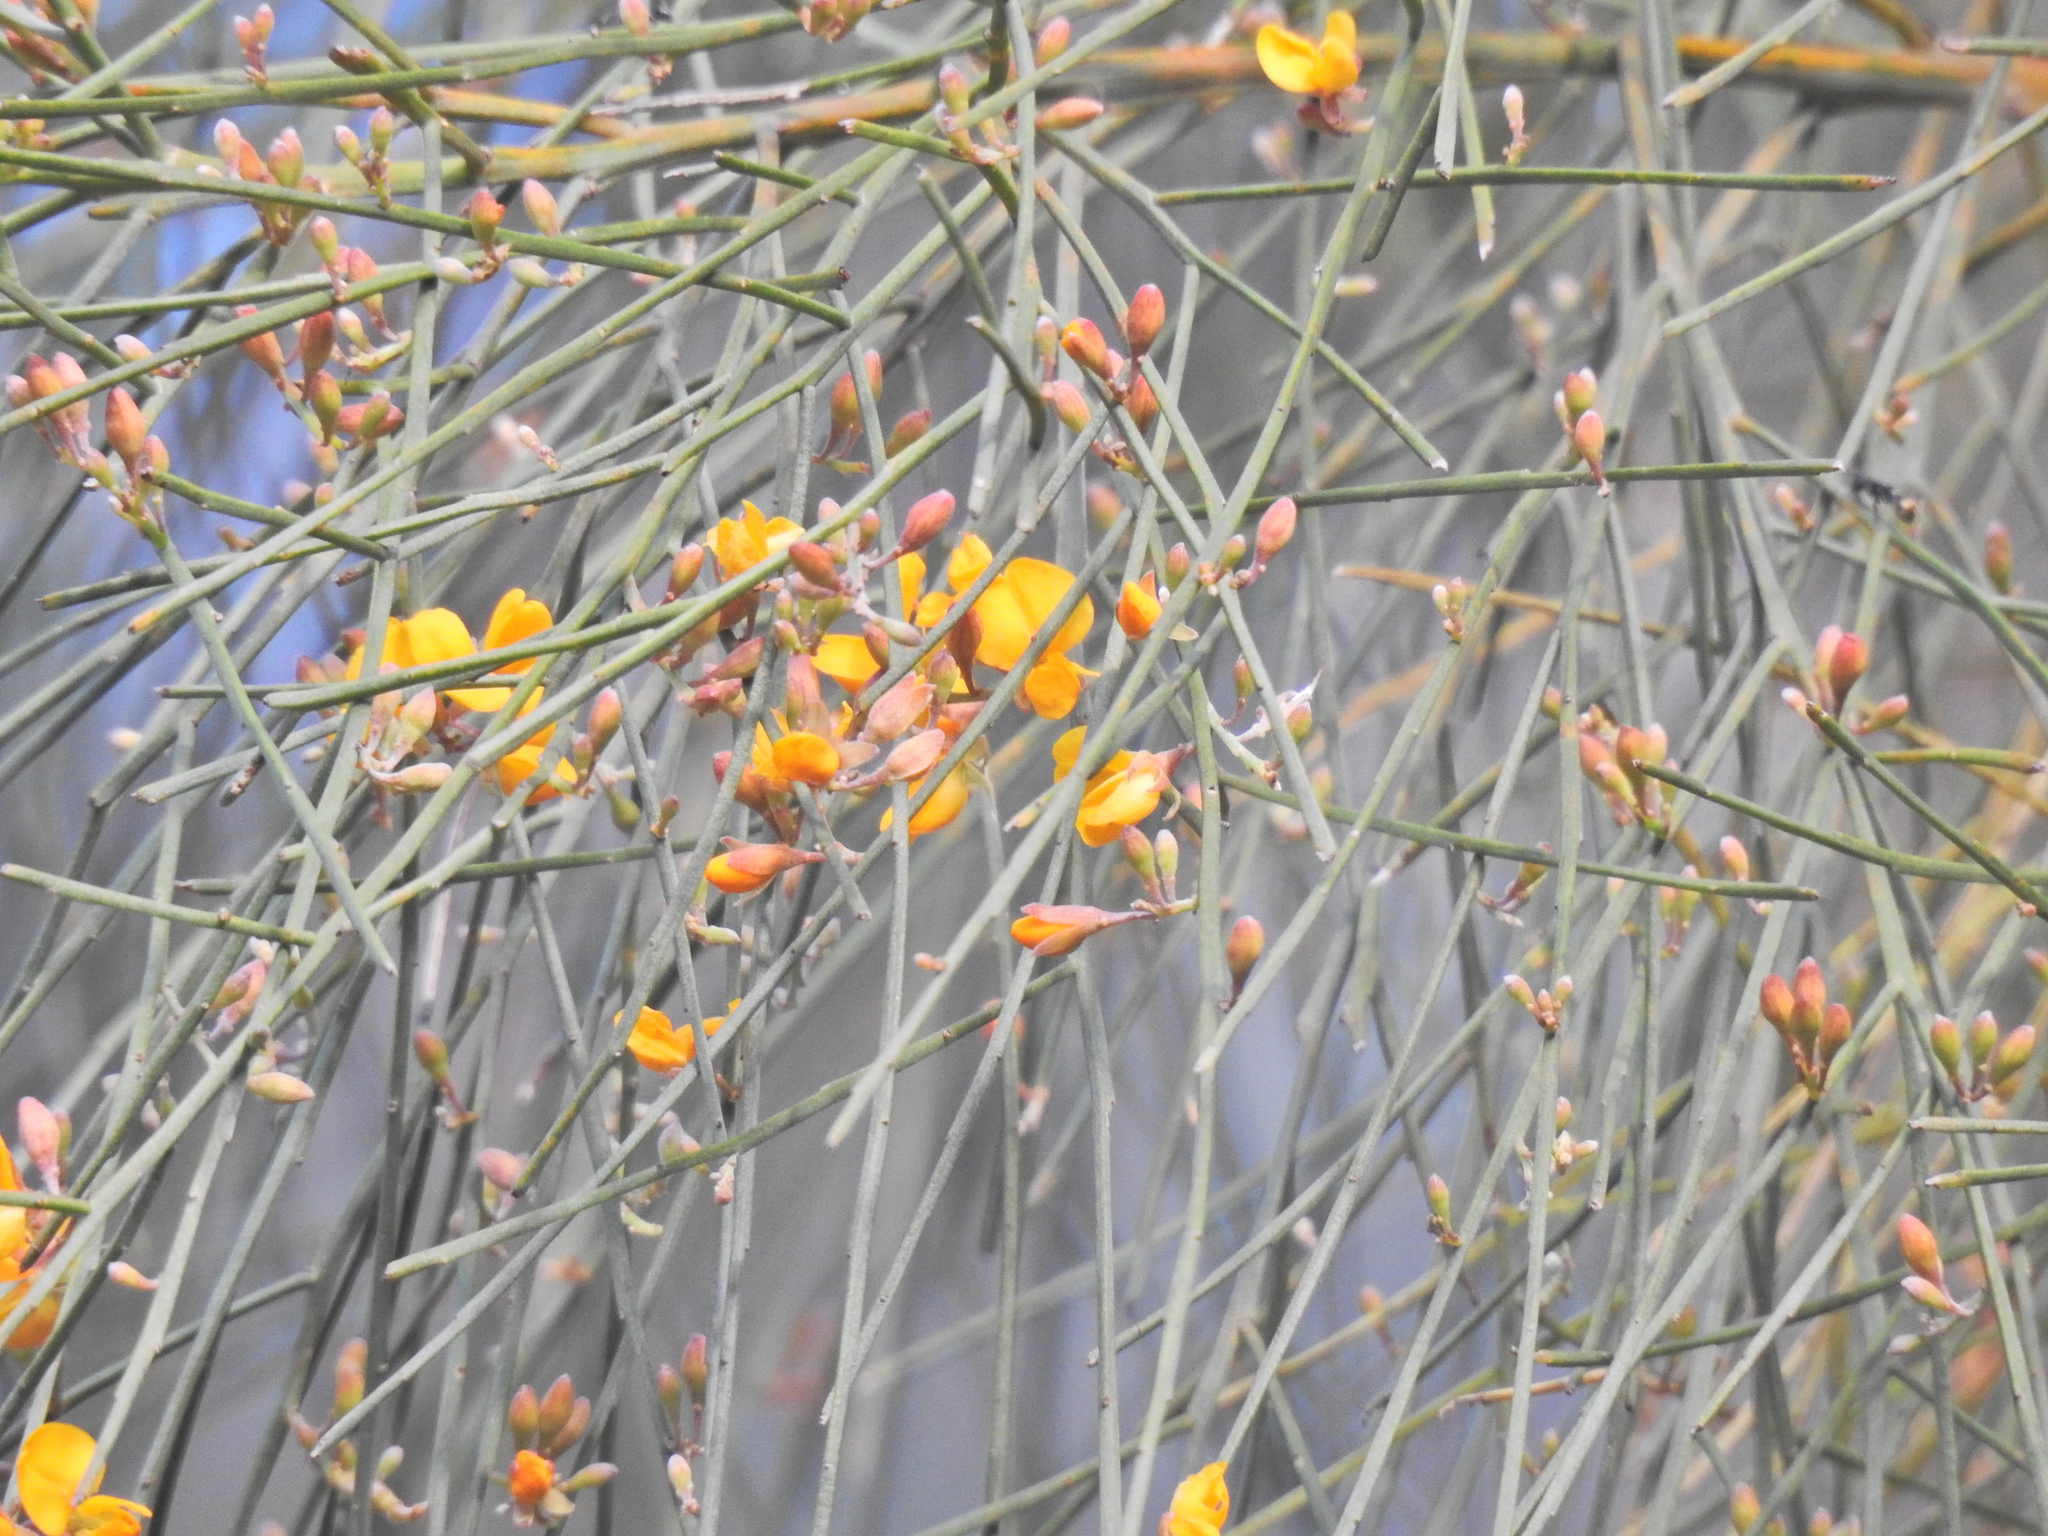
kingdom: Plantae
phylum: Tracheophyta
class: Magnoliopsida
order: Fabales
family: Fabaceae
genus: Jacksonia
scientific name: Jacksonia scoparia
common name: Dogwood
